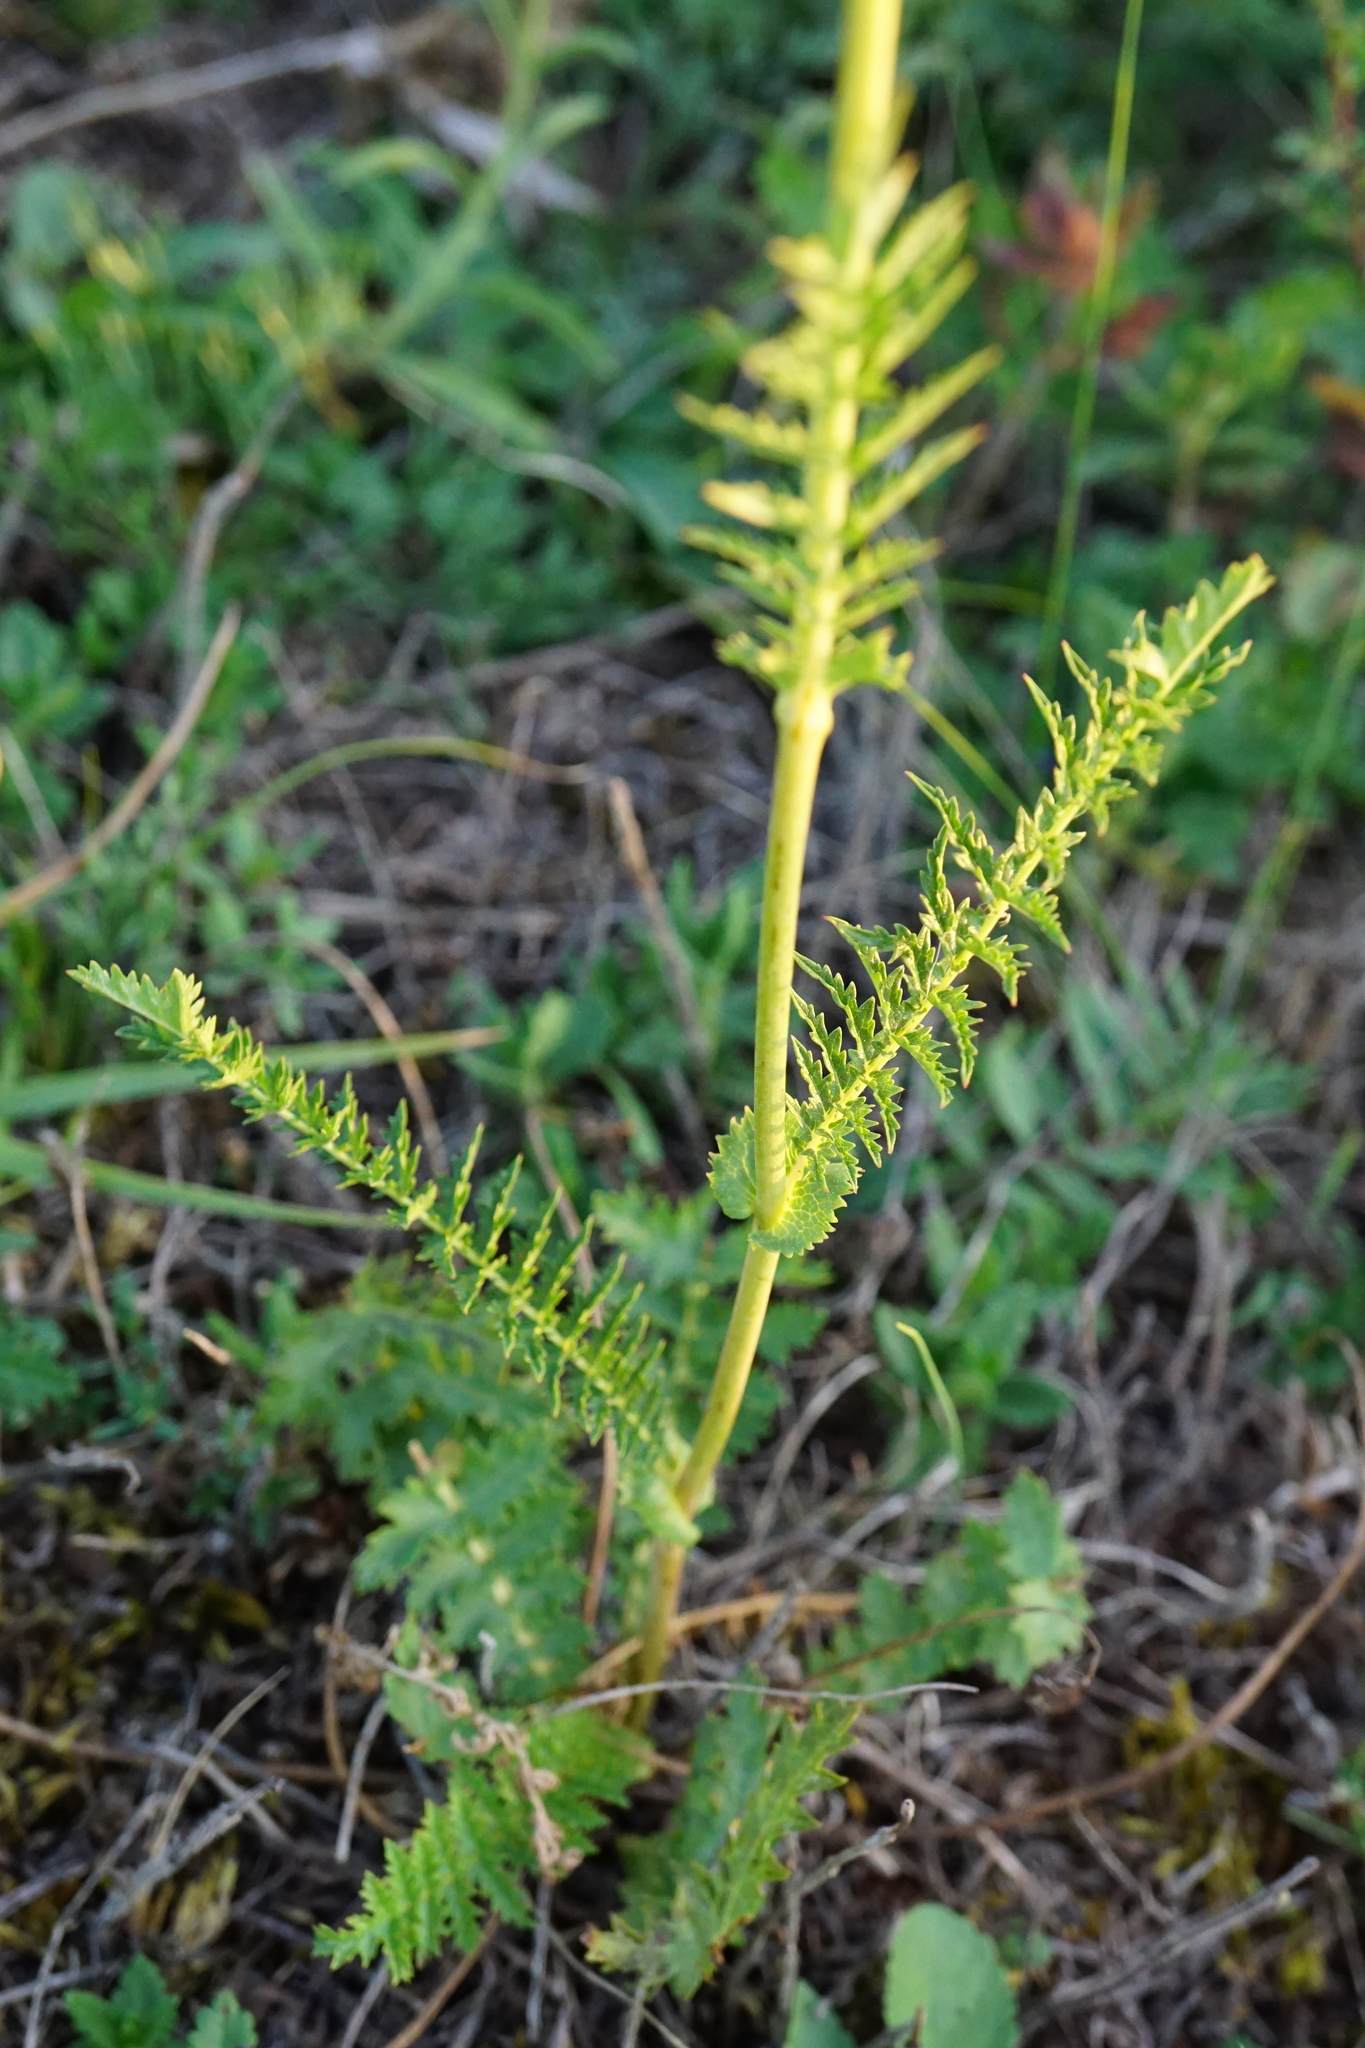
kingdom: Plantae
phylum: Tracheophyta
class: Magnoliopsida
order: Rosales
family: Rosaceae
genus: Filipendula
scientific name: Filipendula vulgaris
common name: Dropwort
